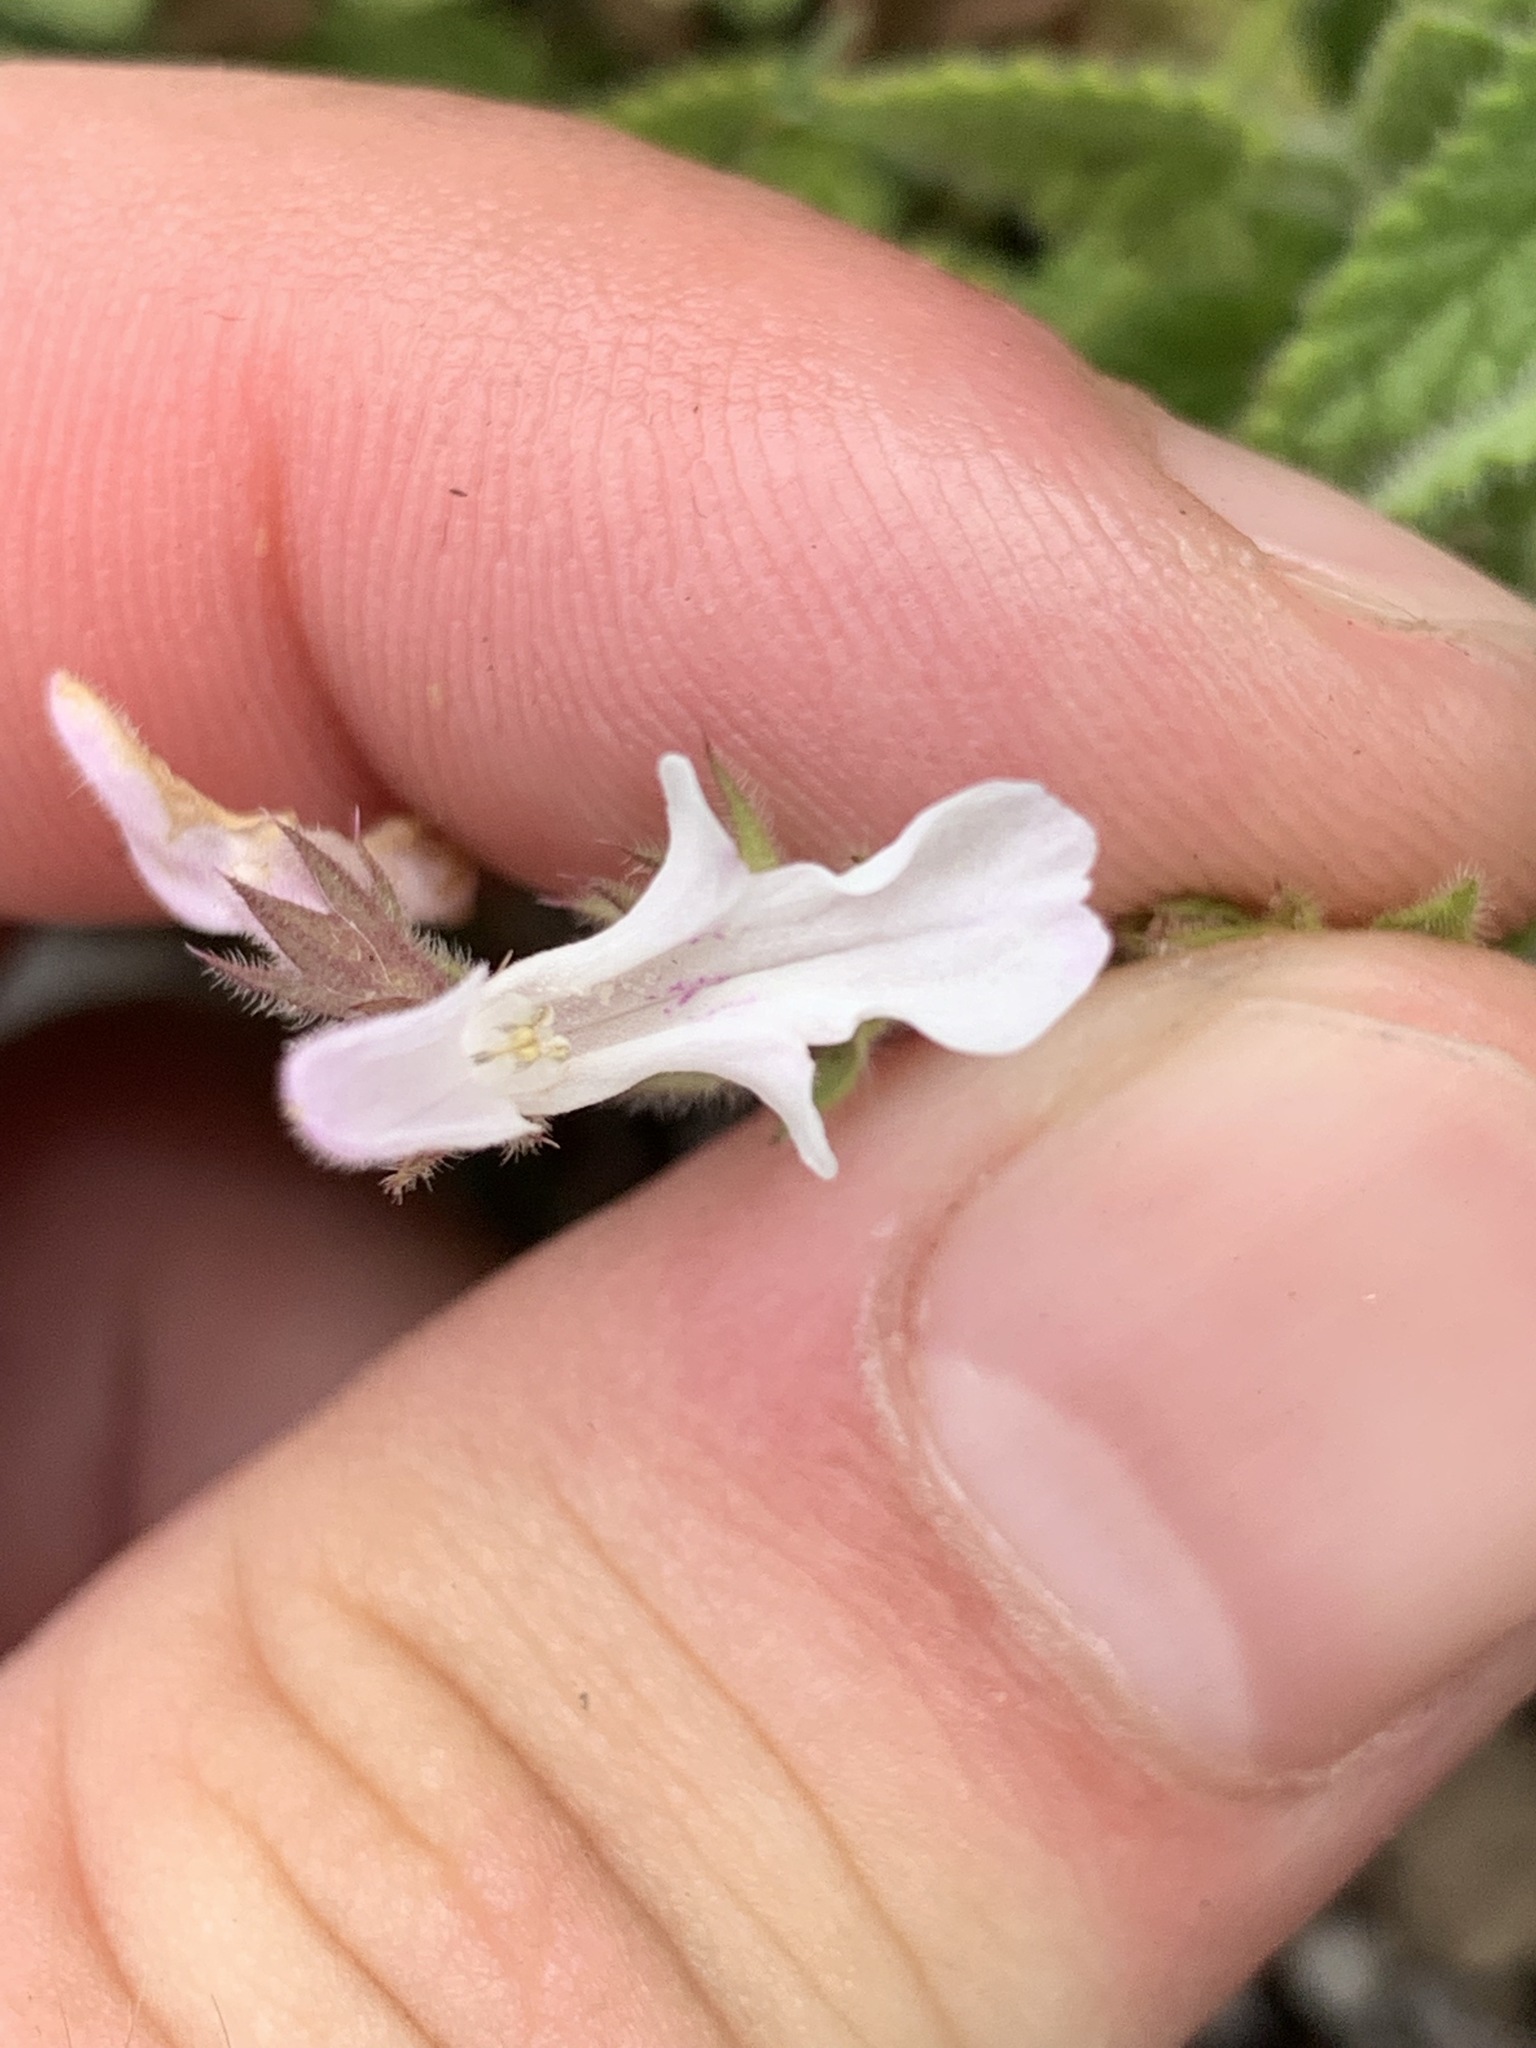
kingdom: Plantae
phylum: Tracheophyta
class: Magnoliopsida
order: Lamiales
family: Lamiaceae
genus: Stachys
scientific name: Stachys aethiopica
